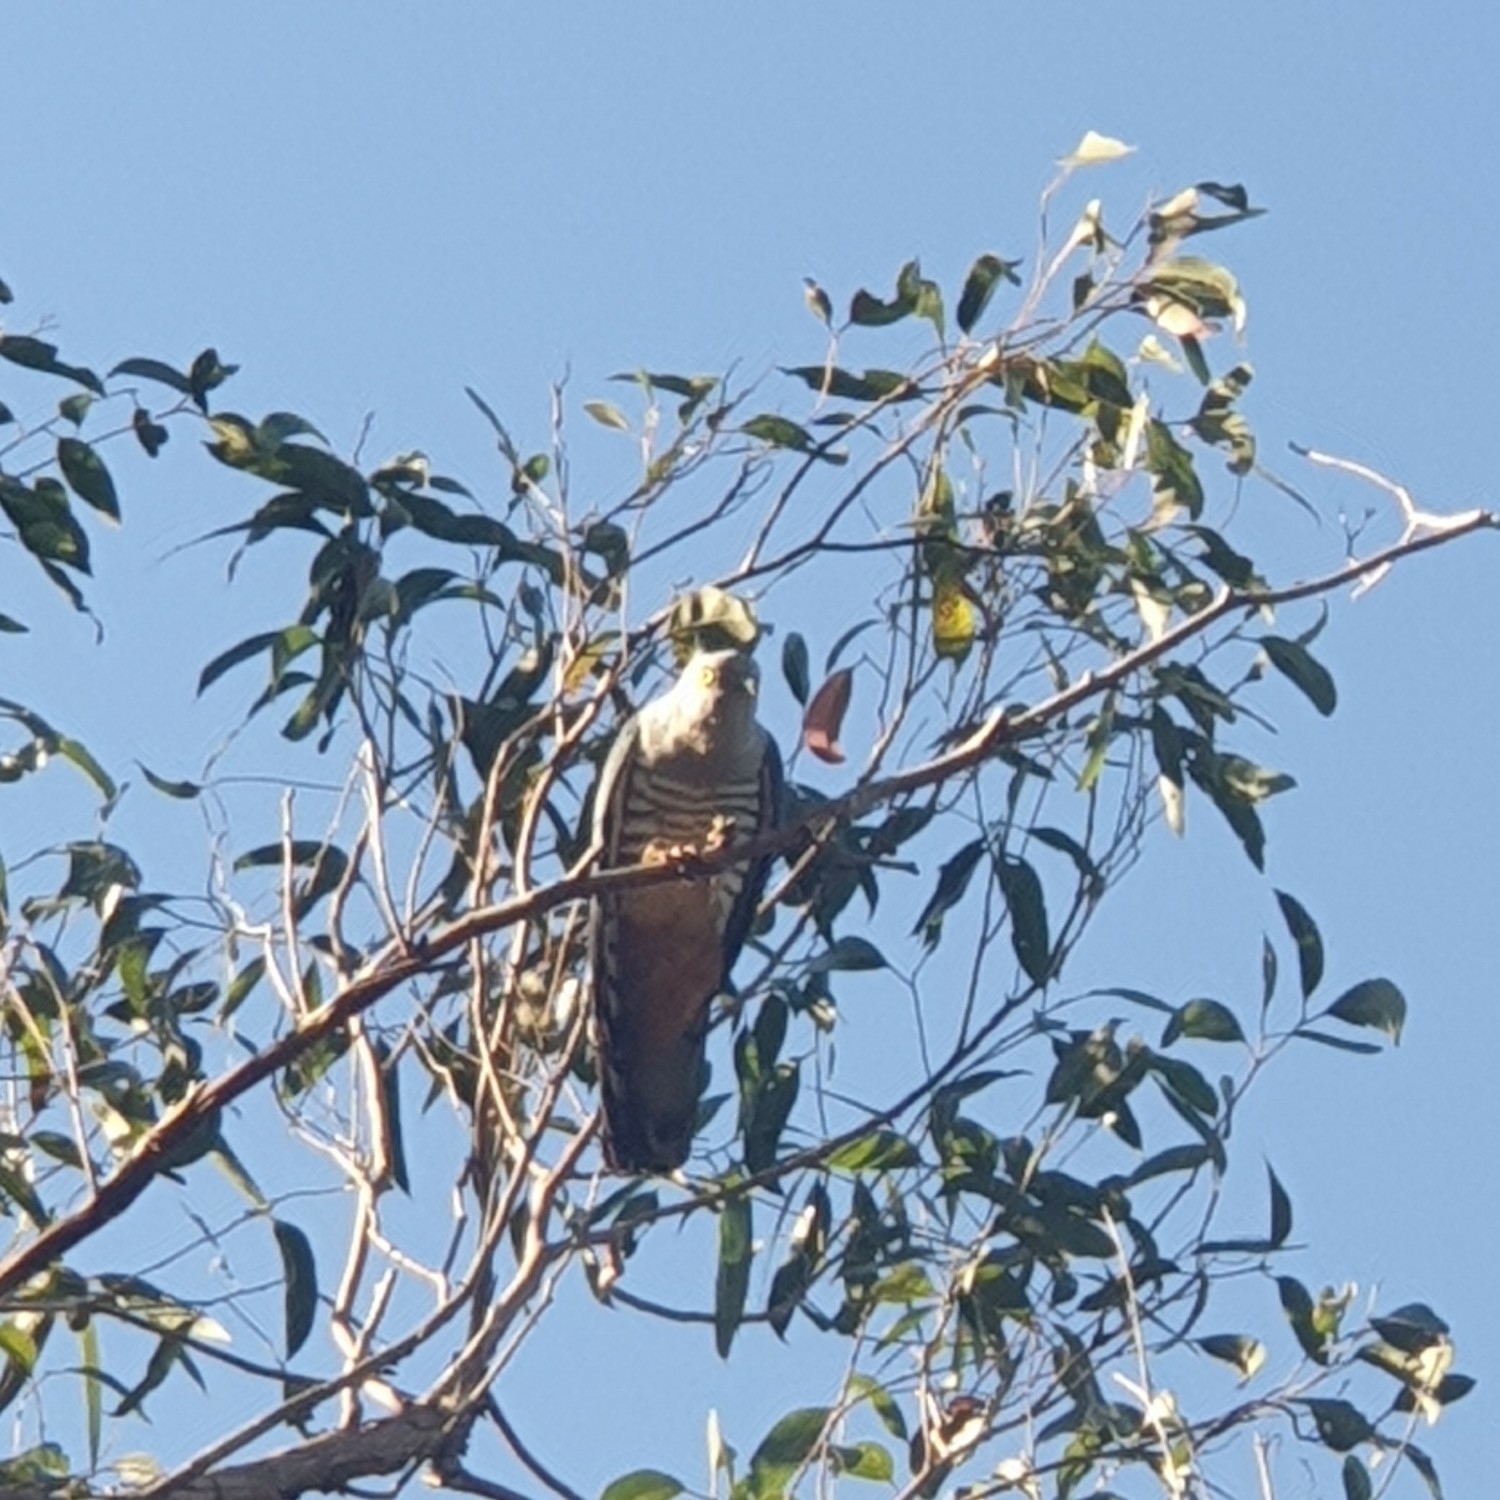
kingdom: Animalia
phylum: Chordata
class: Aves
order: Accipitriformes
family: Accipitridae
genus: Aviceda
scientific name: Aviceda subcristata
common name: Pacific baza
